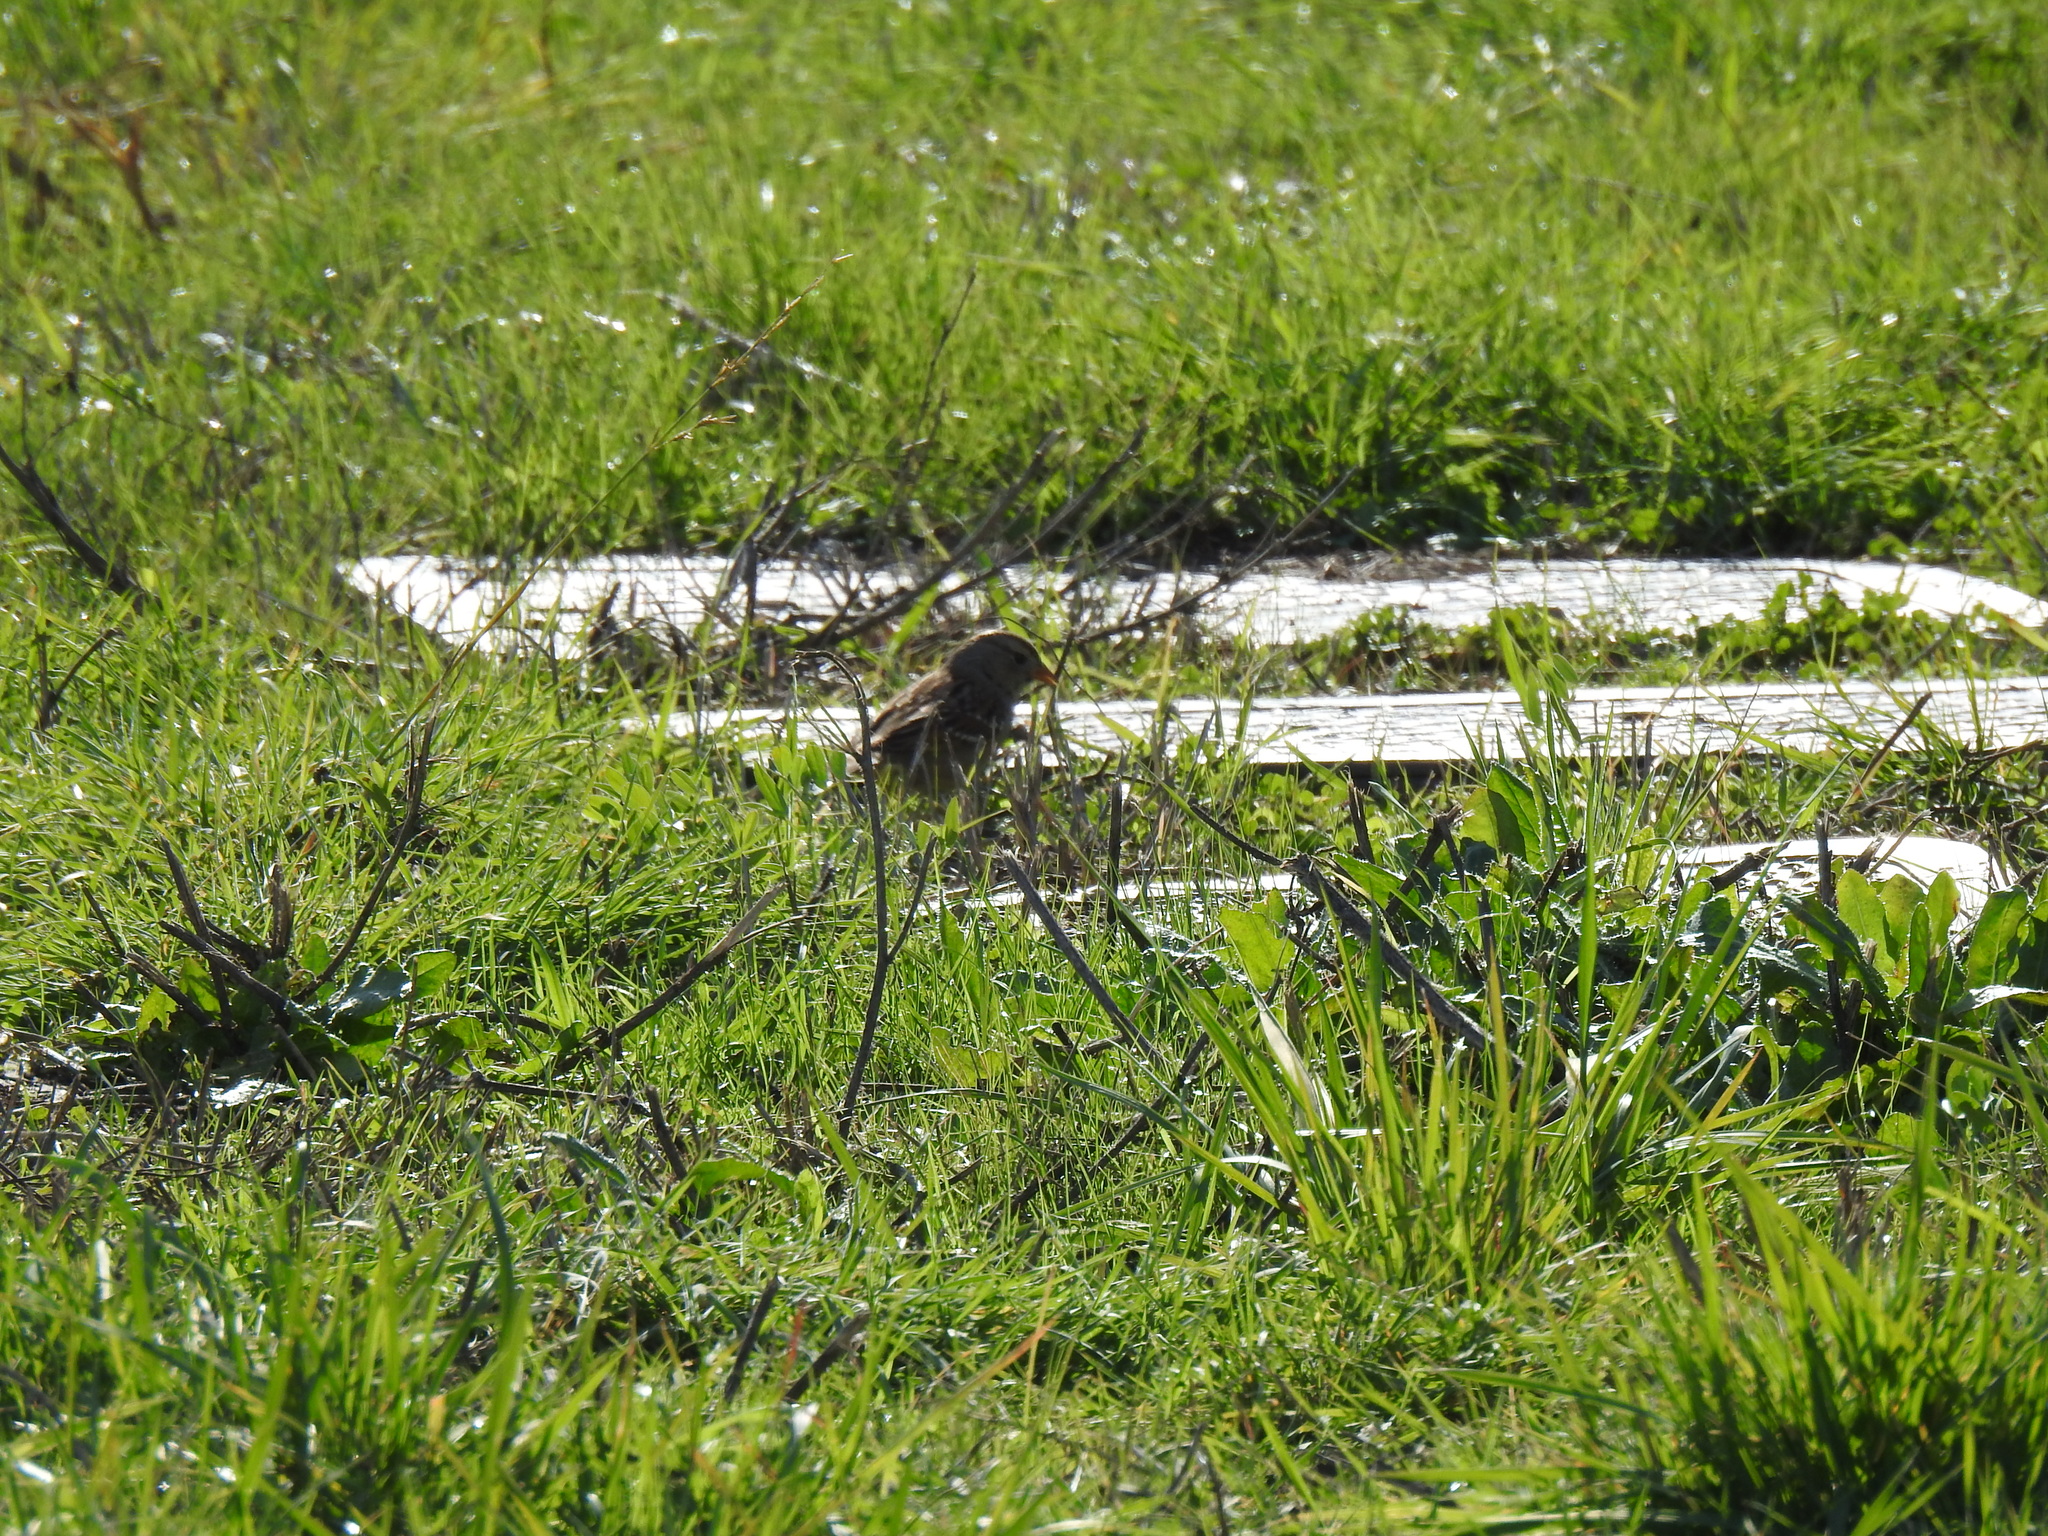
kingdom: Animalia
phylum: Chordata
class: Aves
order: Passeriformes
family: Passerellidae
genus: Zonotrichia
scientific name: Zonotrichia leucophrys
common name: White-crowned sparrow
